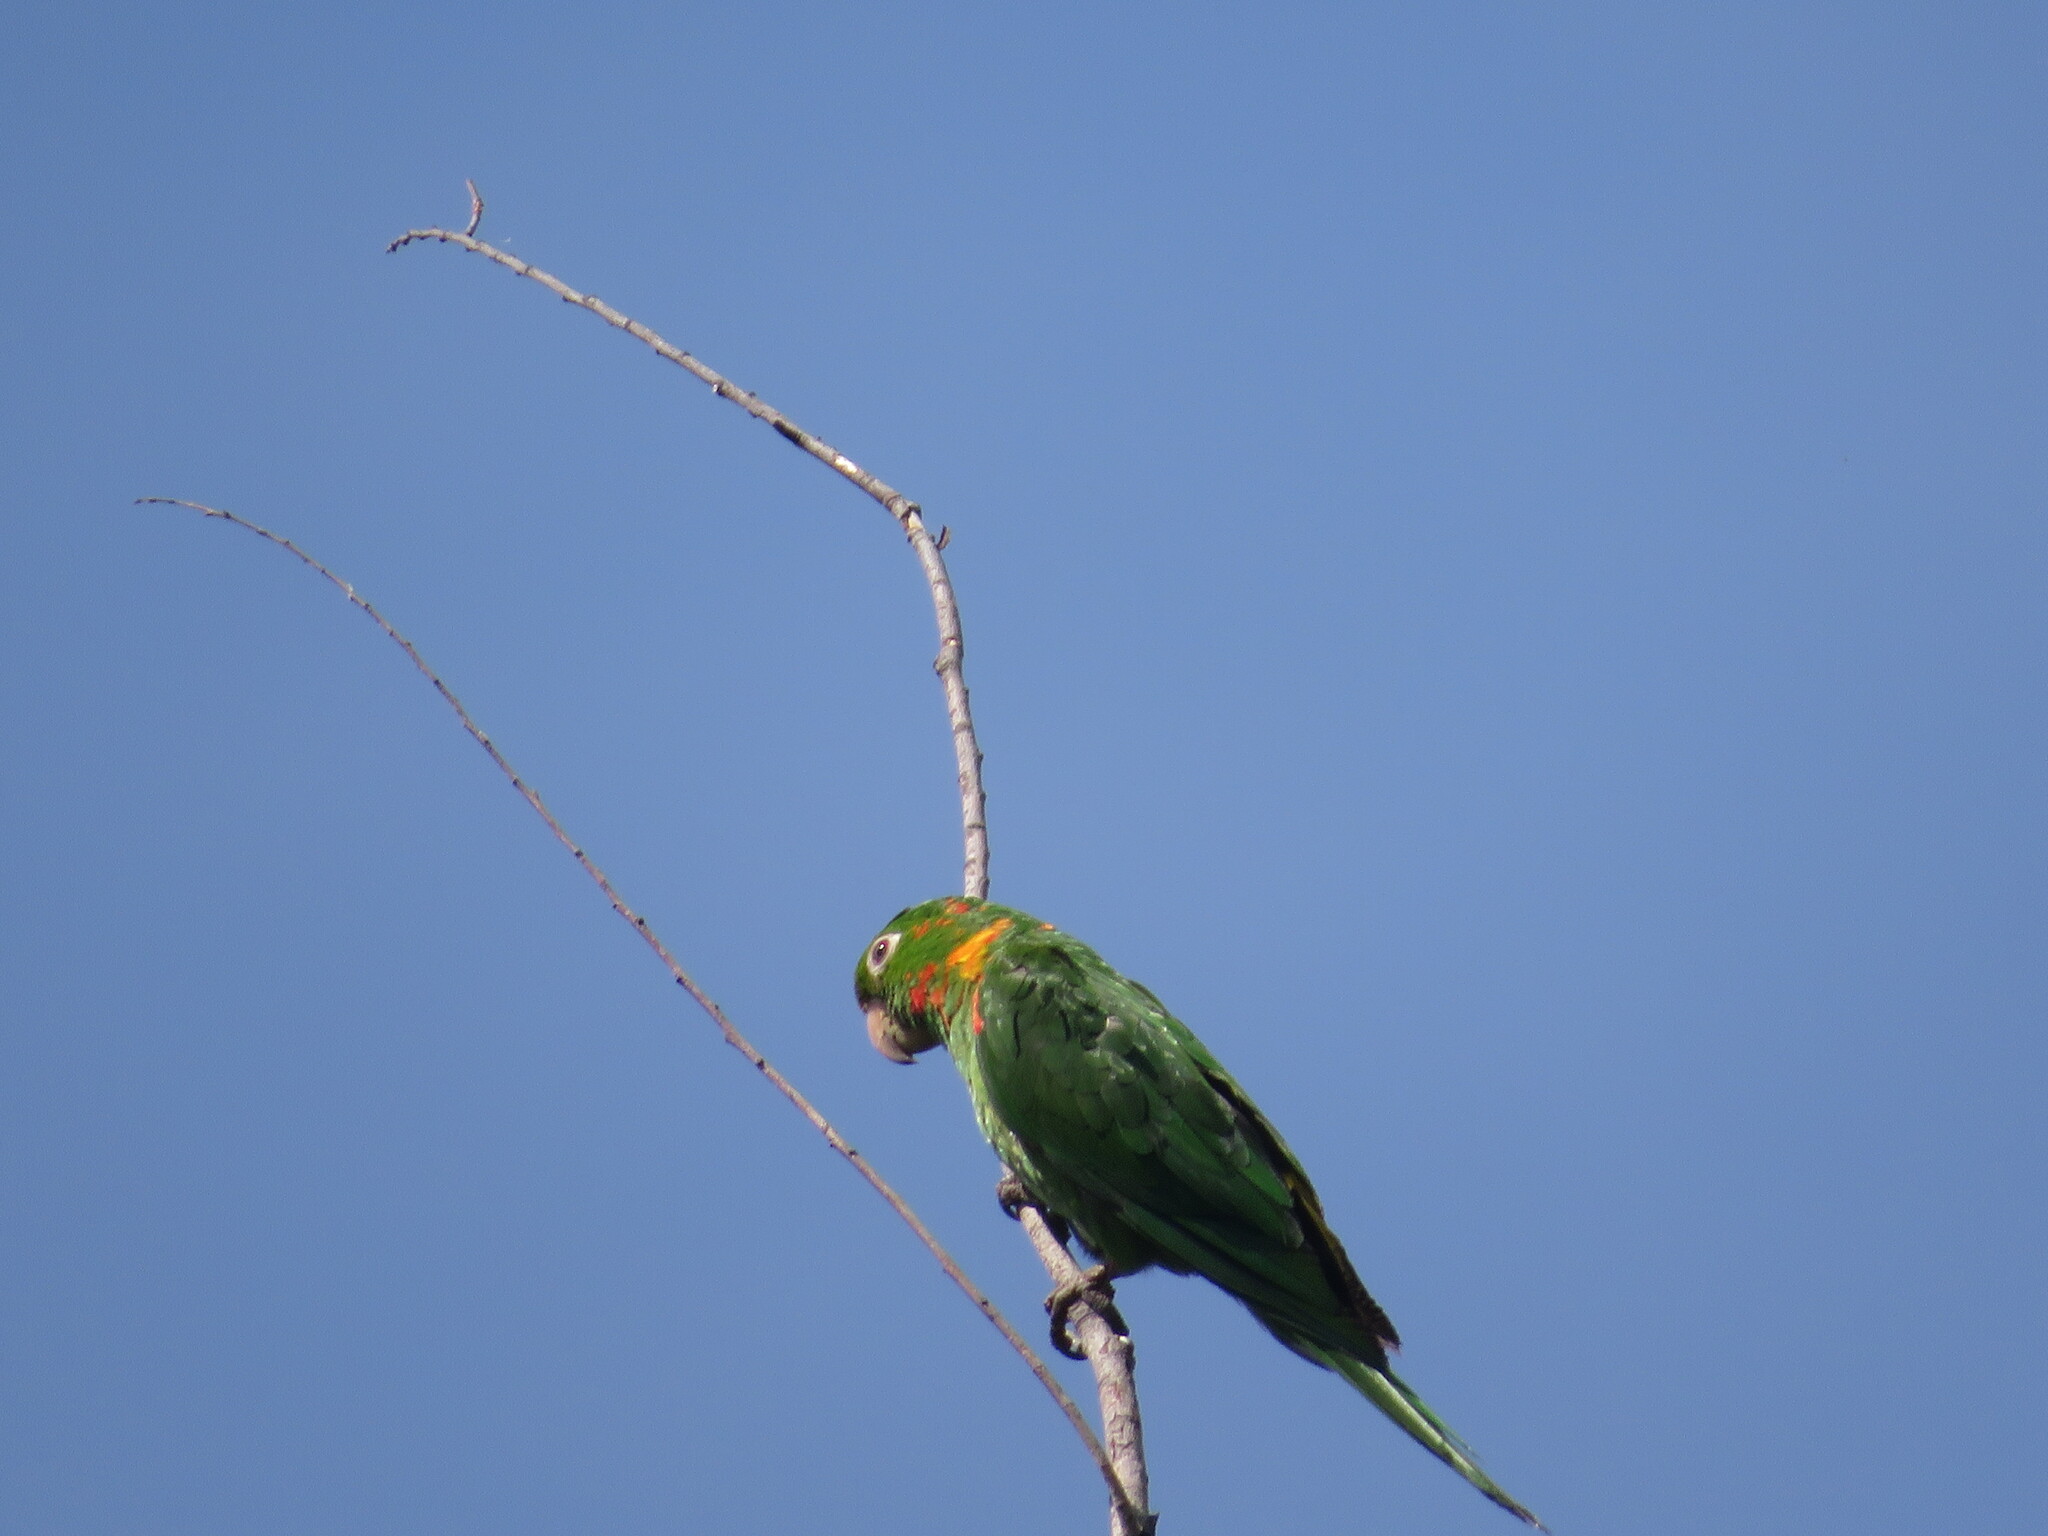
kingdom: Animalia
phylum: Chordata
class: Aves
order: Psittaciformes
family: Psittacidae
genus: Aratinga
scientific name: Aratinga leucophthalma
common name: White-eyed parakeet
